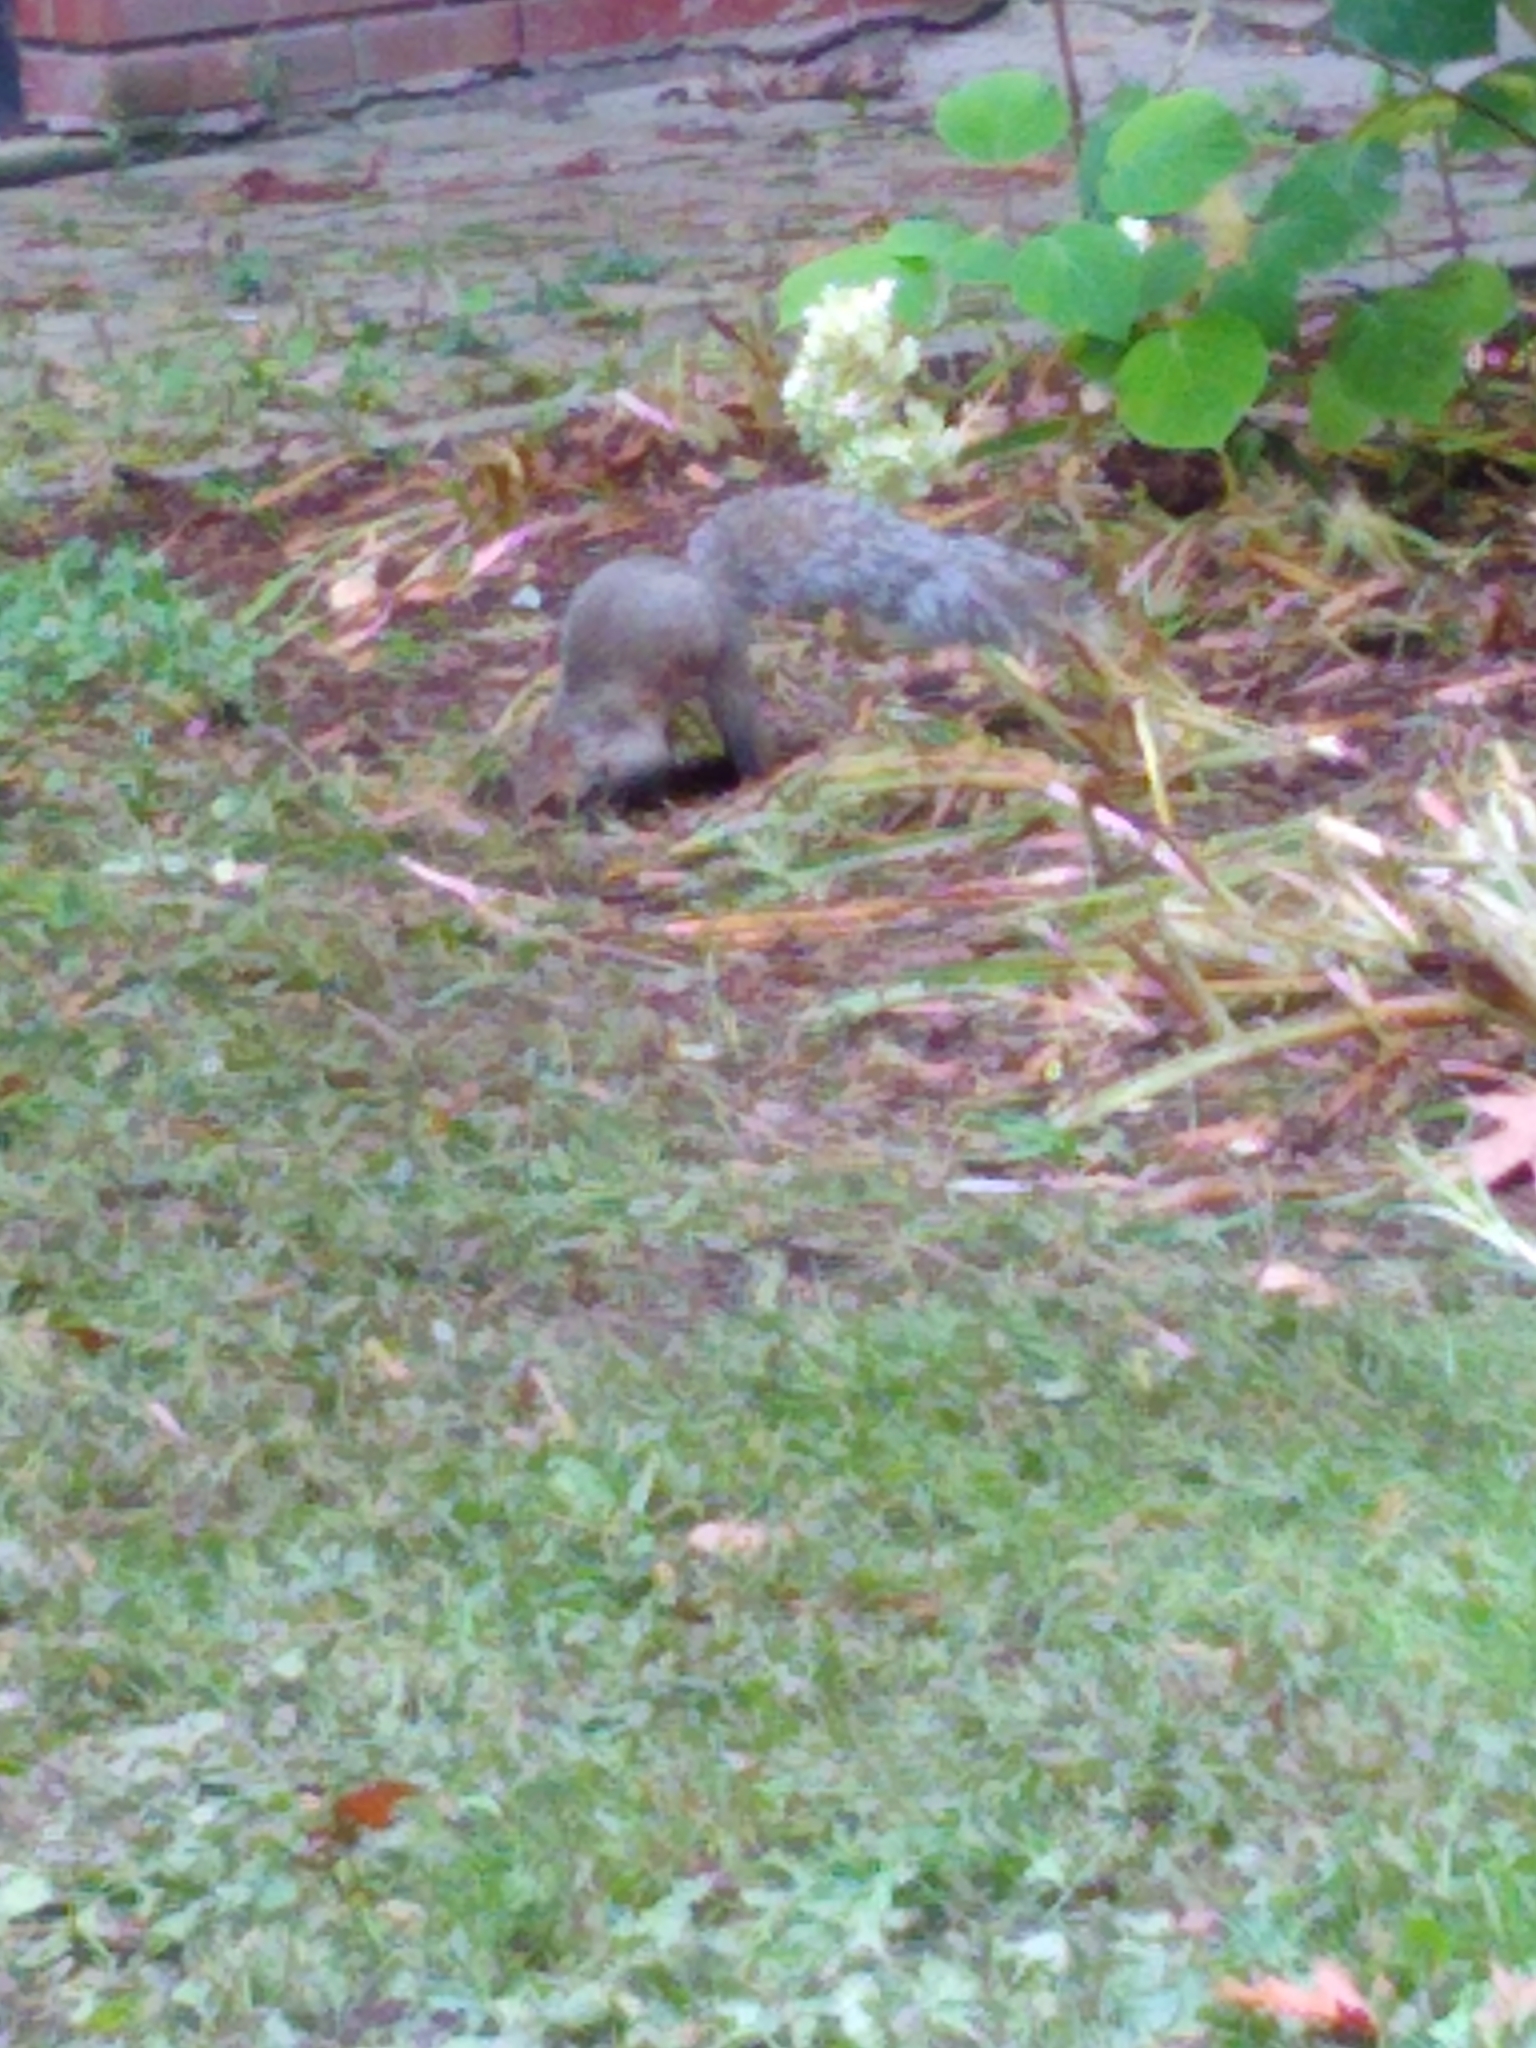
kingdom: Animalia
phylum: Chordata
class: Mammalia
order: Rodentia
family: Sciuridae
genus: Sciurus
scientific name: Sciurus carolinensis
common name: Eastern gray squirrel
